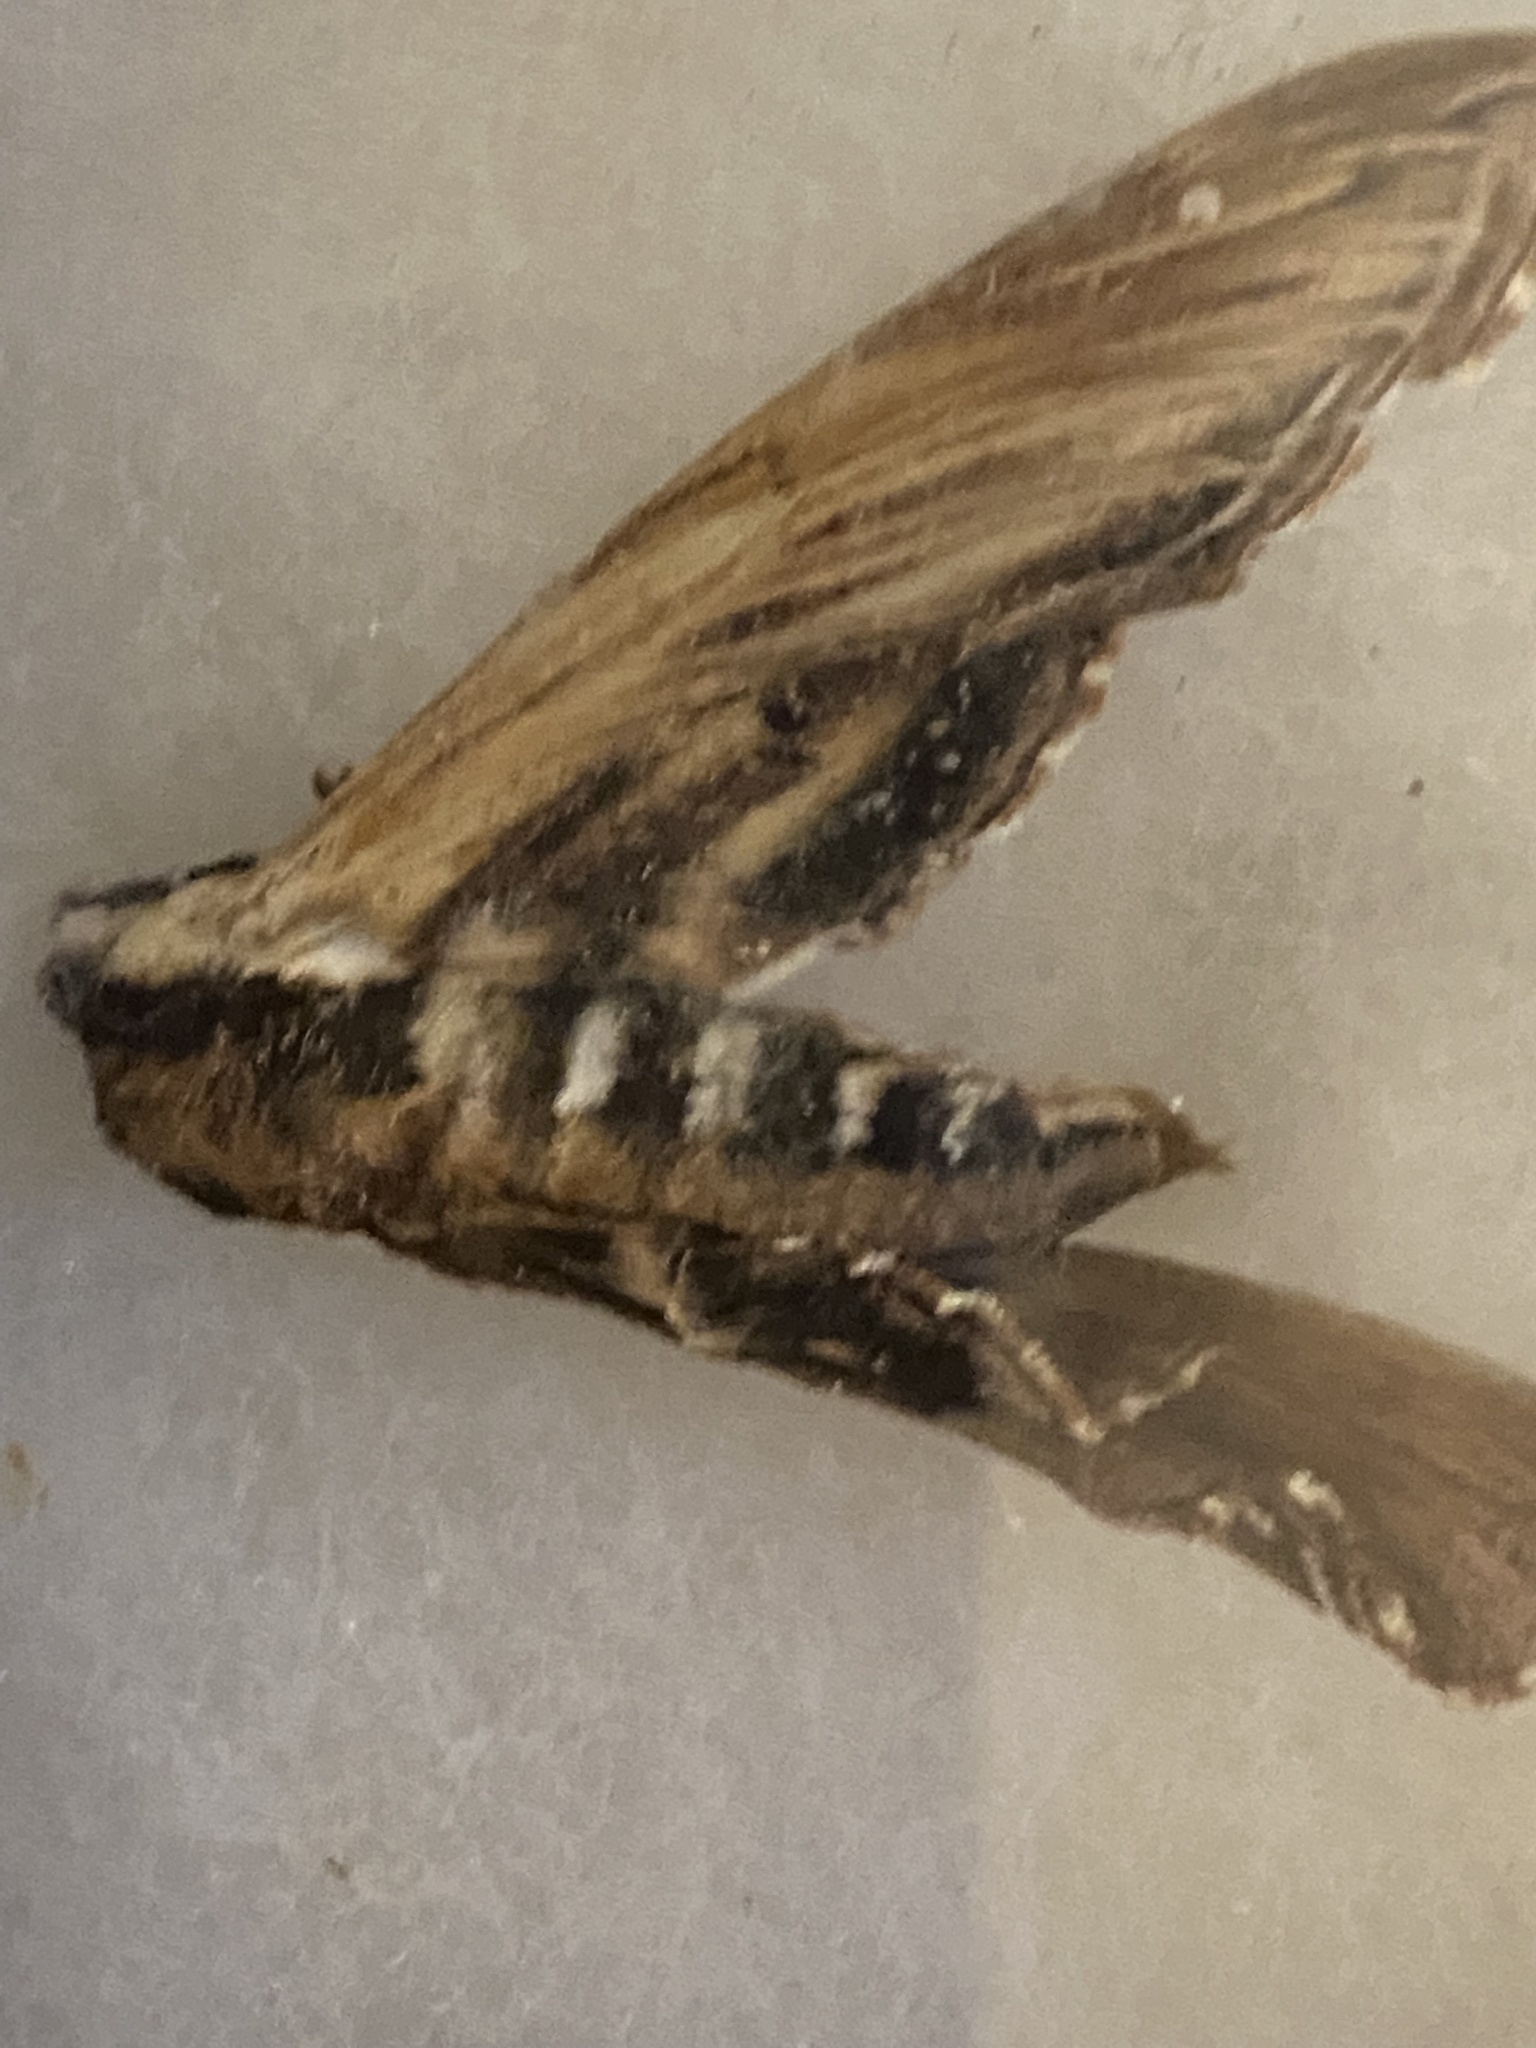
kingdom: Animalia
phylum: Arthropoda
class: Insecta
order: Lepidoptera
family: Sphingidae
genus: Sphinx
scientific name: Sphinx kalmiae
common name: Laurel sphinx
